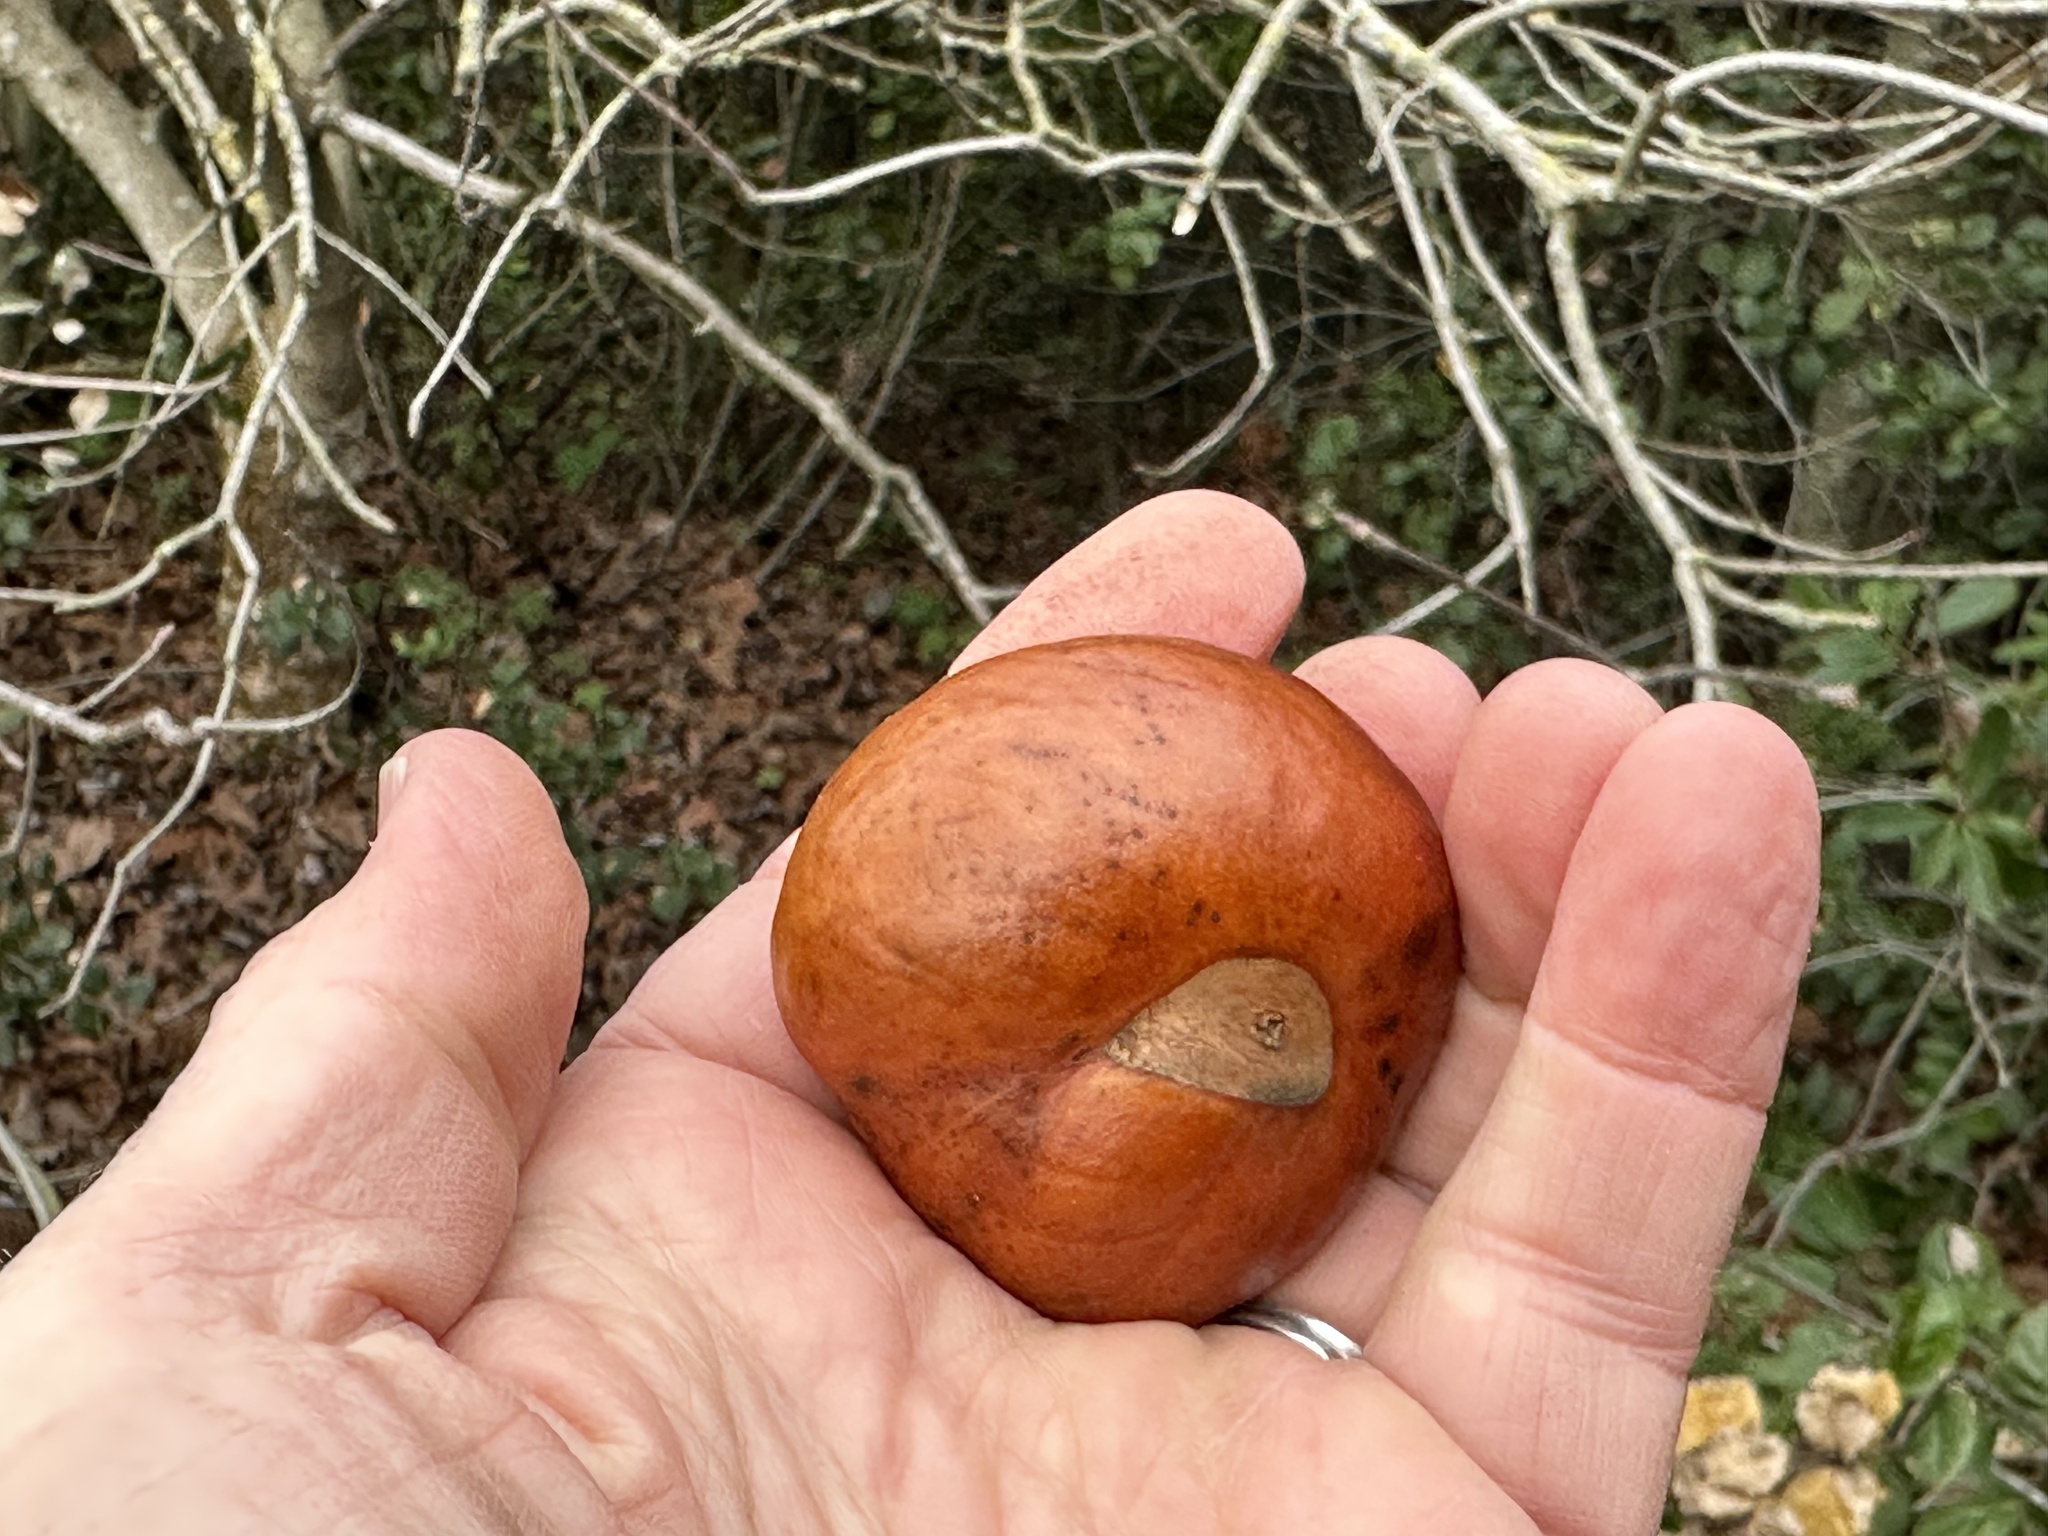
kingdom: Plantae
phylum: Tracheophyta
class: Magnoliopsida
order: Sapindales
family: Sapindaceae
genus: Aesculus
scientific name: Aesculus californica
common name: California buckeye
